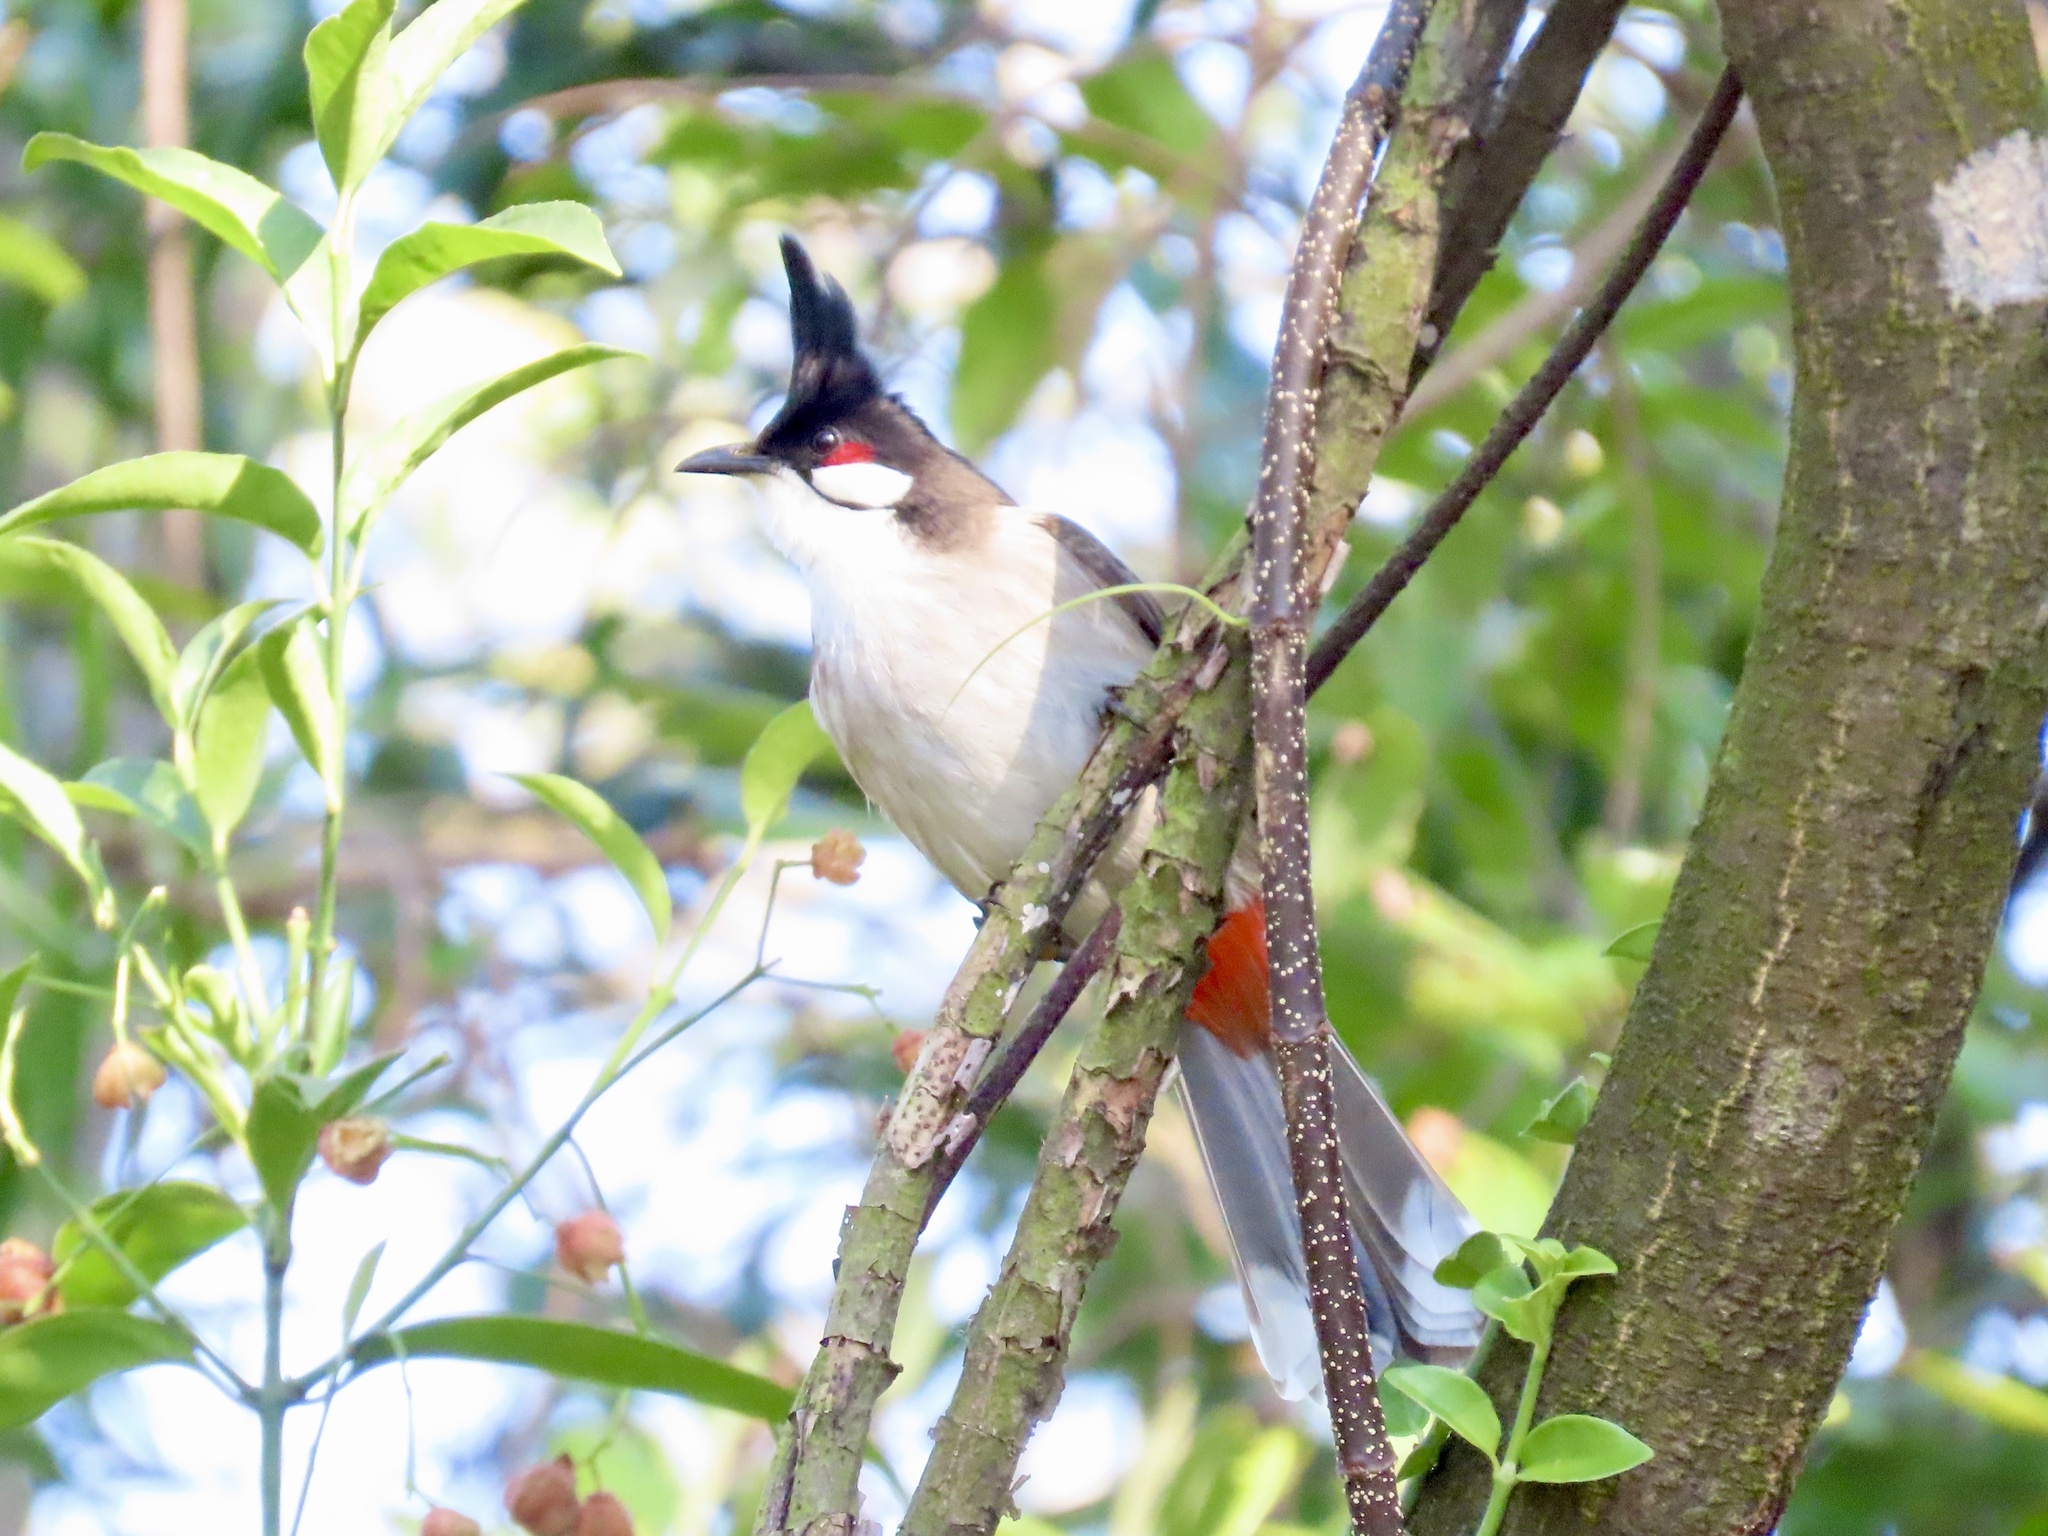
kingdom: Animalia
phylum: Chordata
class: Aves
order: Passeriformes
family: Pycnonotidae
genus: Pycnonotus
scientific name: Pycnonotus jocosus
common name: Red-whiskered bulbul
